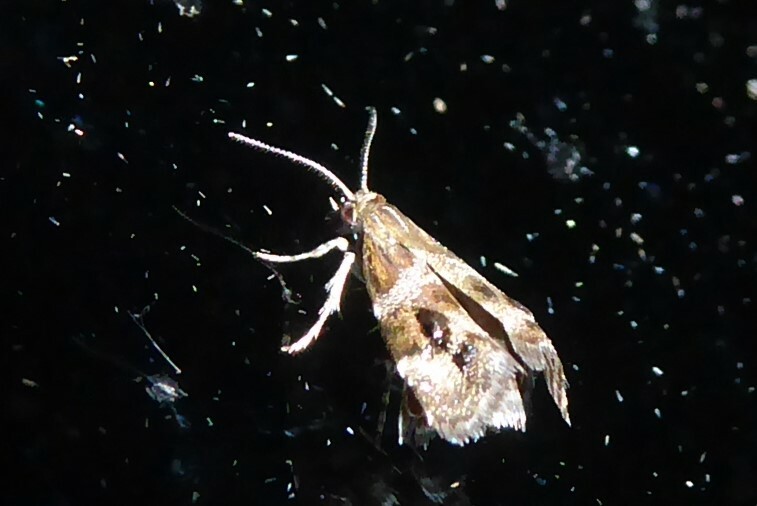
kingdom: Animalia
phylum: Arthropoda
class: Insecta
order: Lepidoptera
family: Choreutidae
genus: Tebenna
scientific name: Tebenna micalis
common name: Vagrant twitcher
